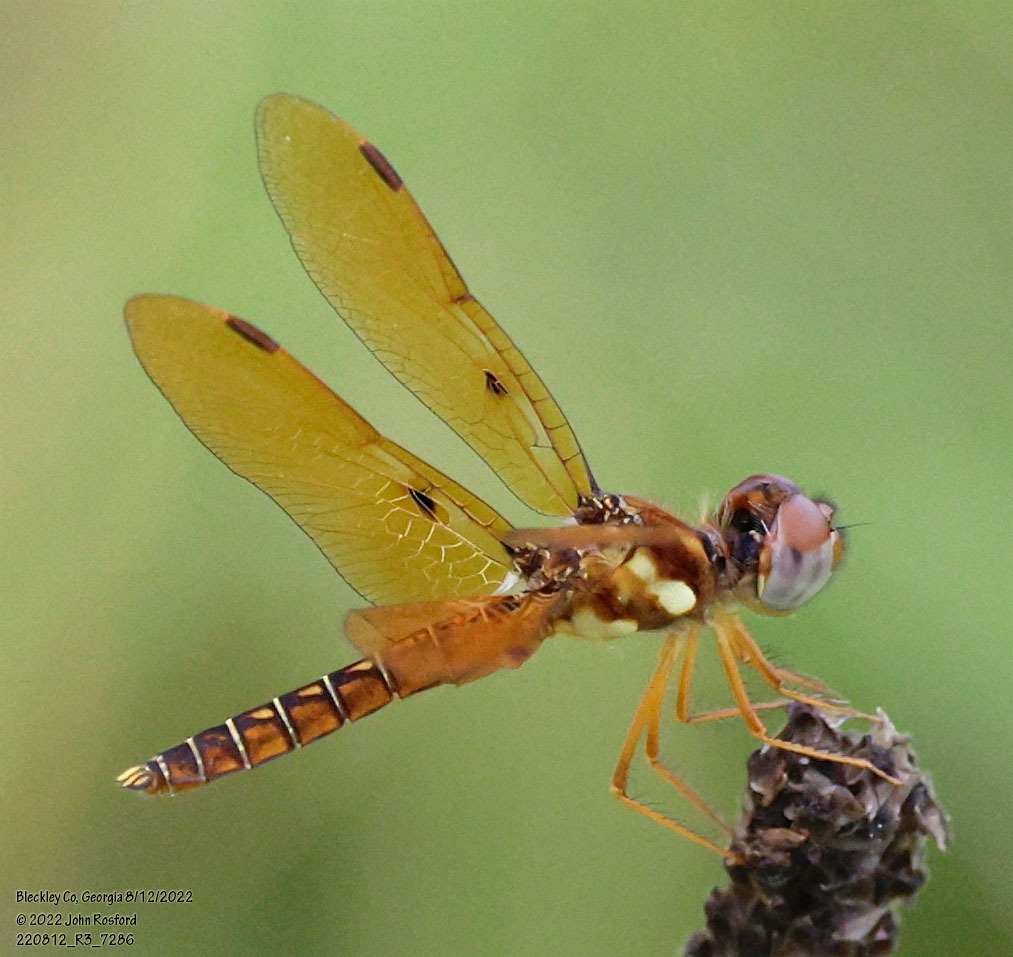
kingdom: Animalia
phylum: Arthropoda
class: Insecta
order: Odonata
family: Libellulidae
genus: Perithemis
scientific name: Perithemis tenera
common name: Eastern amberwing
